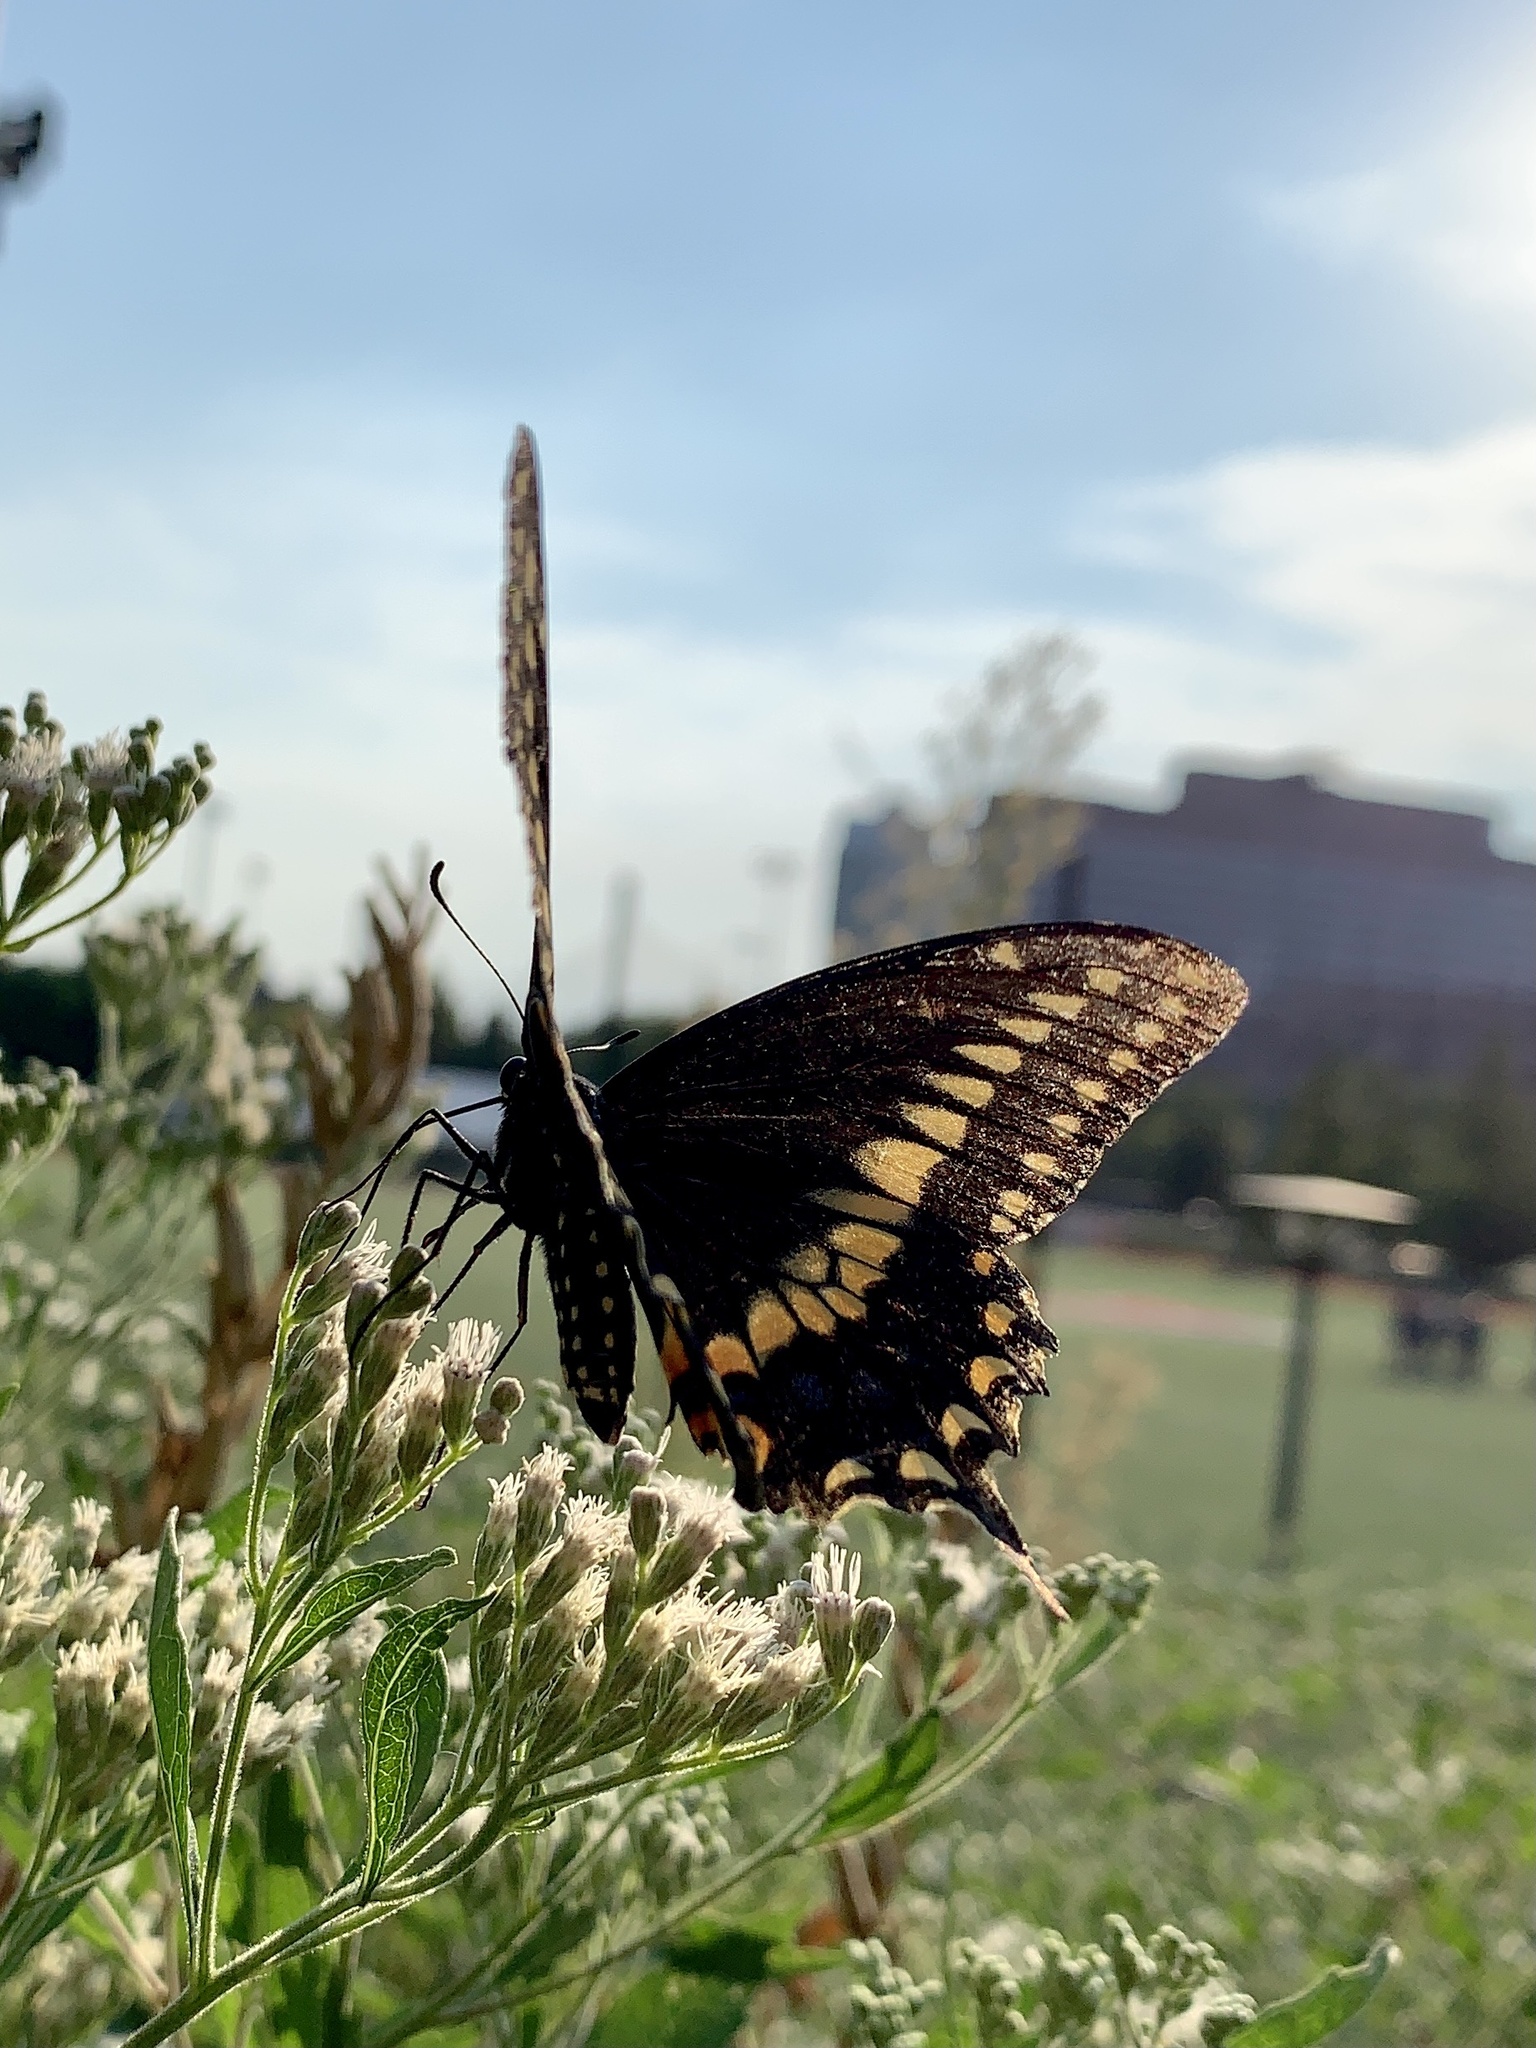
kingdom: Animalia
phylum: Arthropoda
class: Insecta
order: Lepidoptera
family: Papilionidae
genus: Papilio
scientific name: Papilio polyxenes
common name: Black swallowtail
